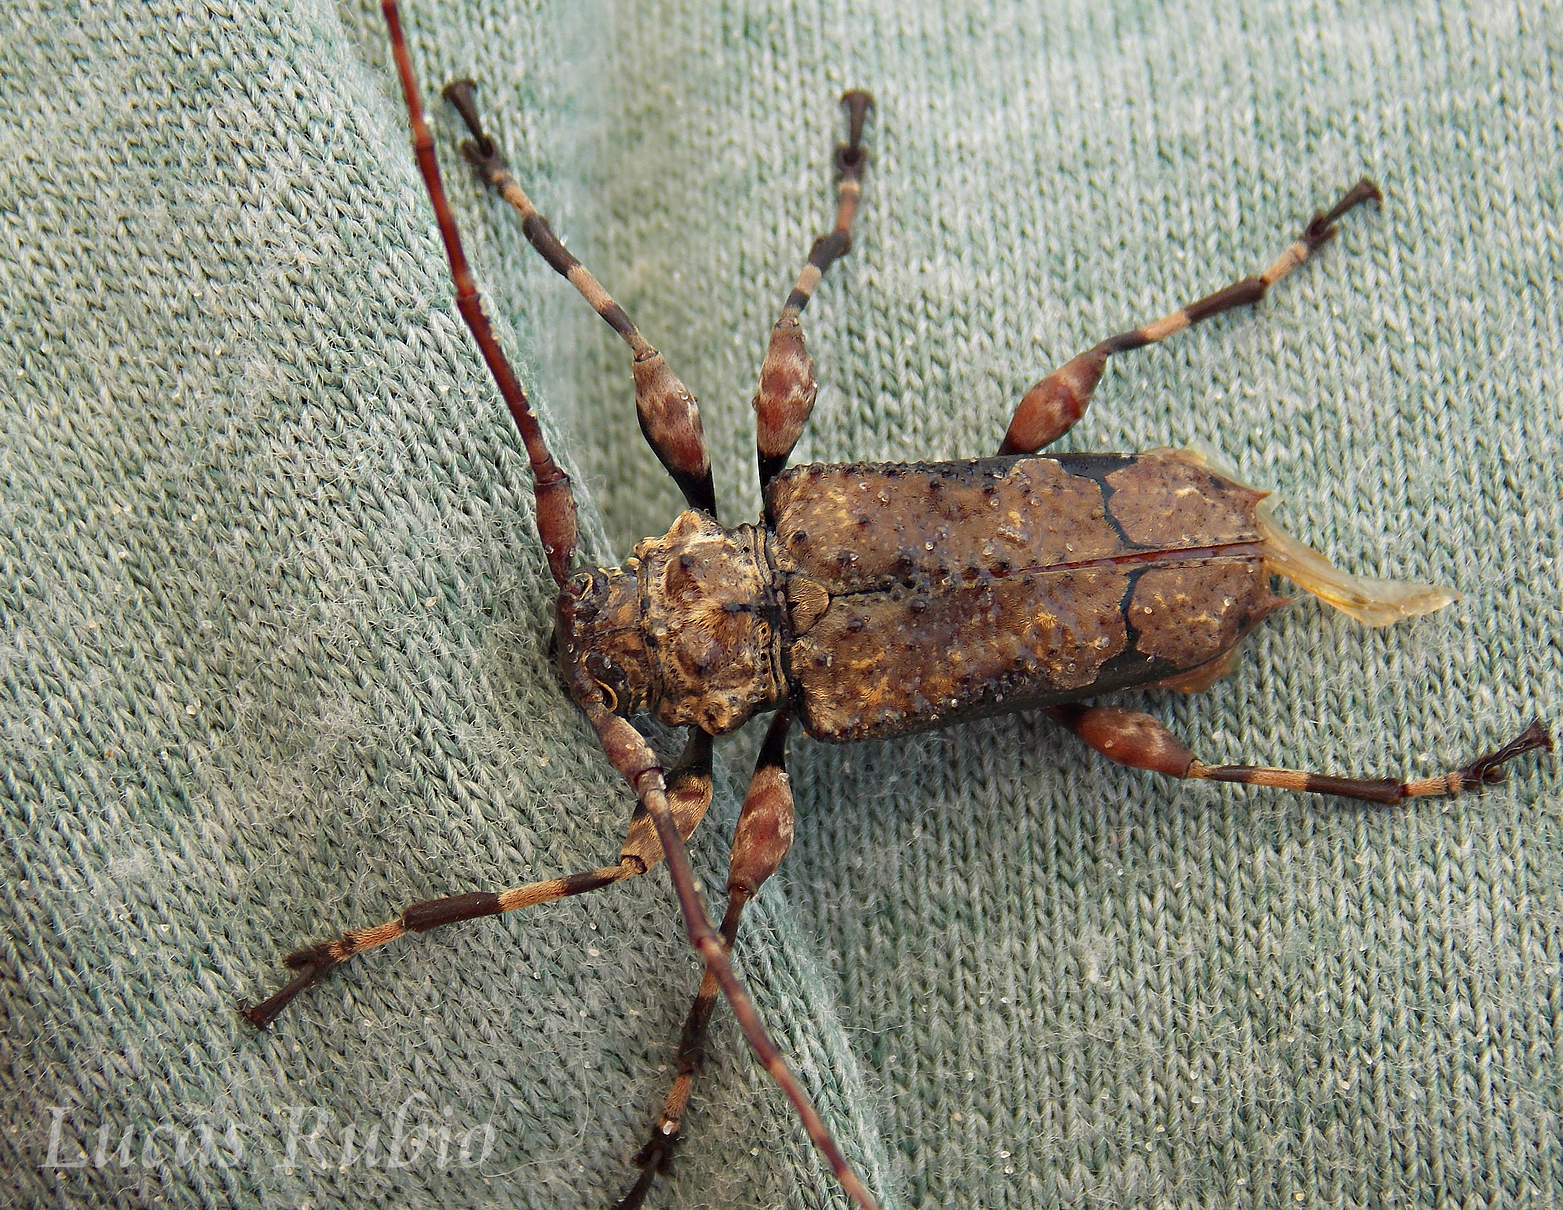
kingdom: Animalia
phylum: Arthropoda
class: Insecta
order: Coleoptera
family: Cerambycidae
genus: Oreodera
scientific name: Oreodera glauca
